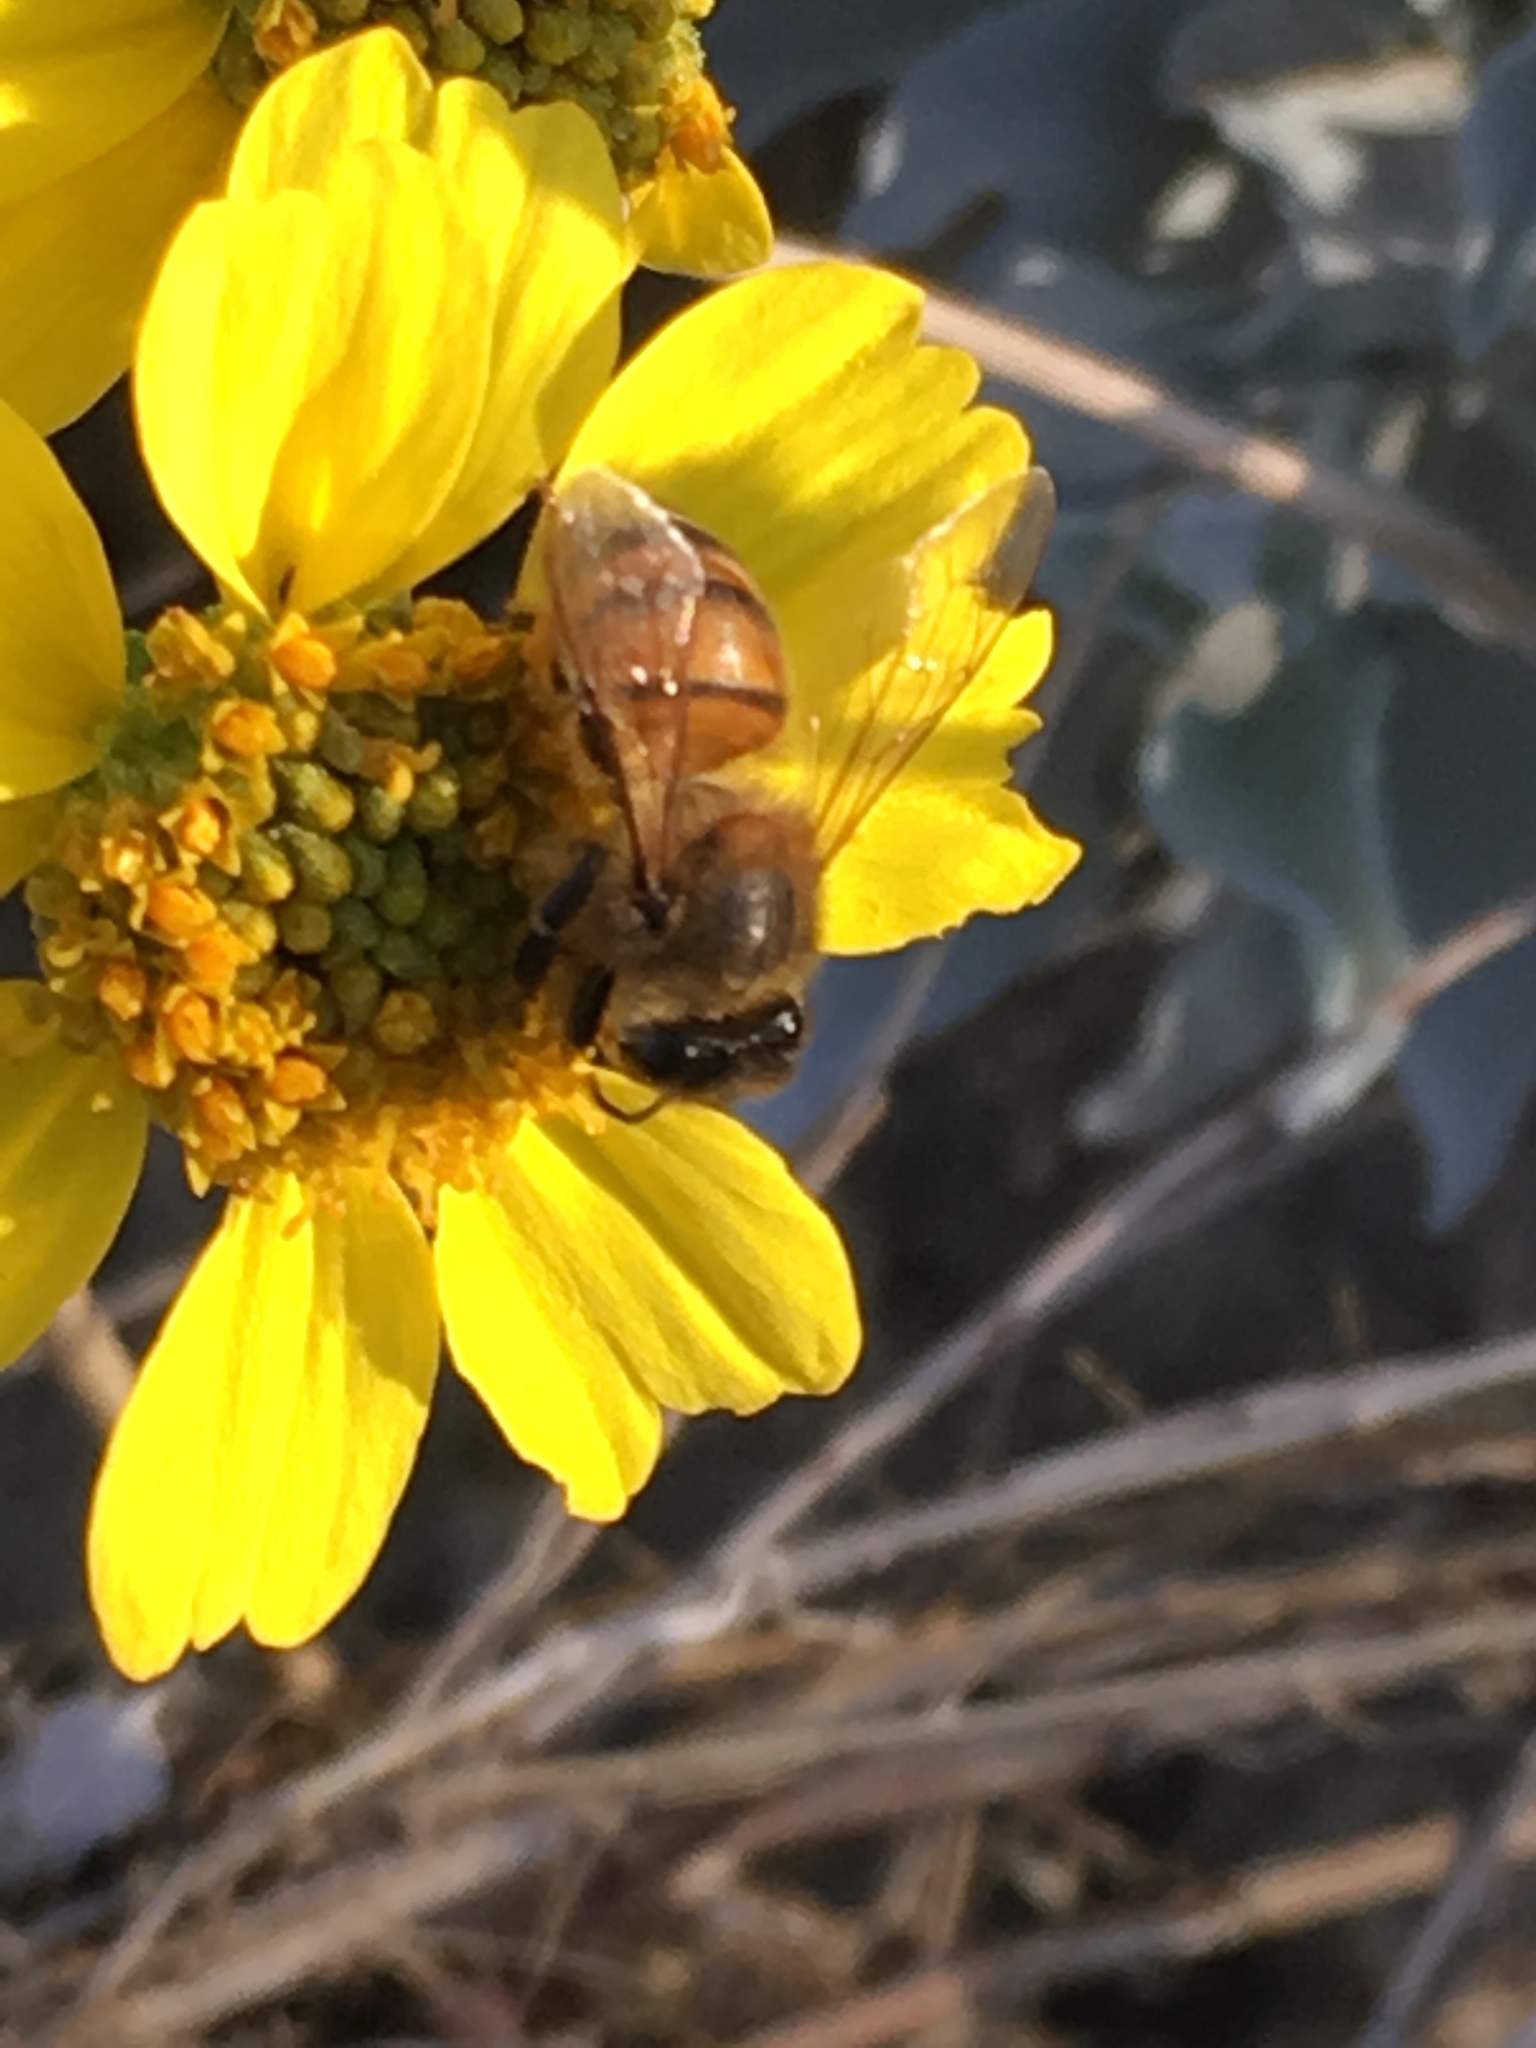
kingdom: Animalia
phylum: Arthropoda
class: Insecta
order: Hymenoptera
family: Apidae
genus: Apis
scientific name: Apis mellifera
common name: Honey bee
